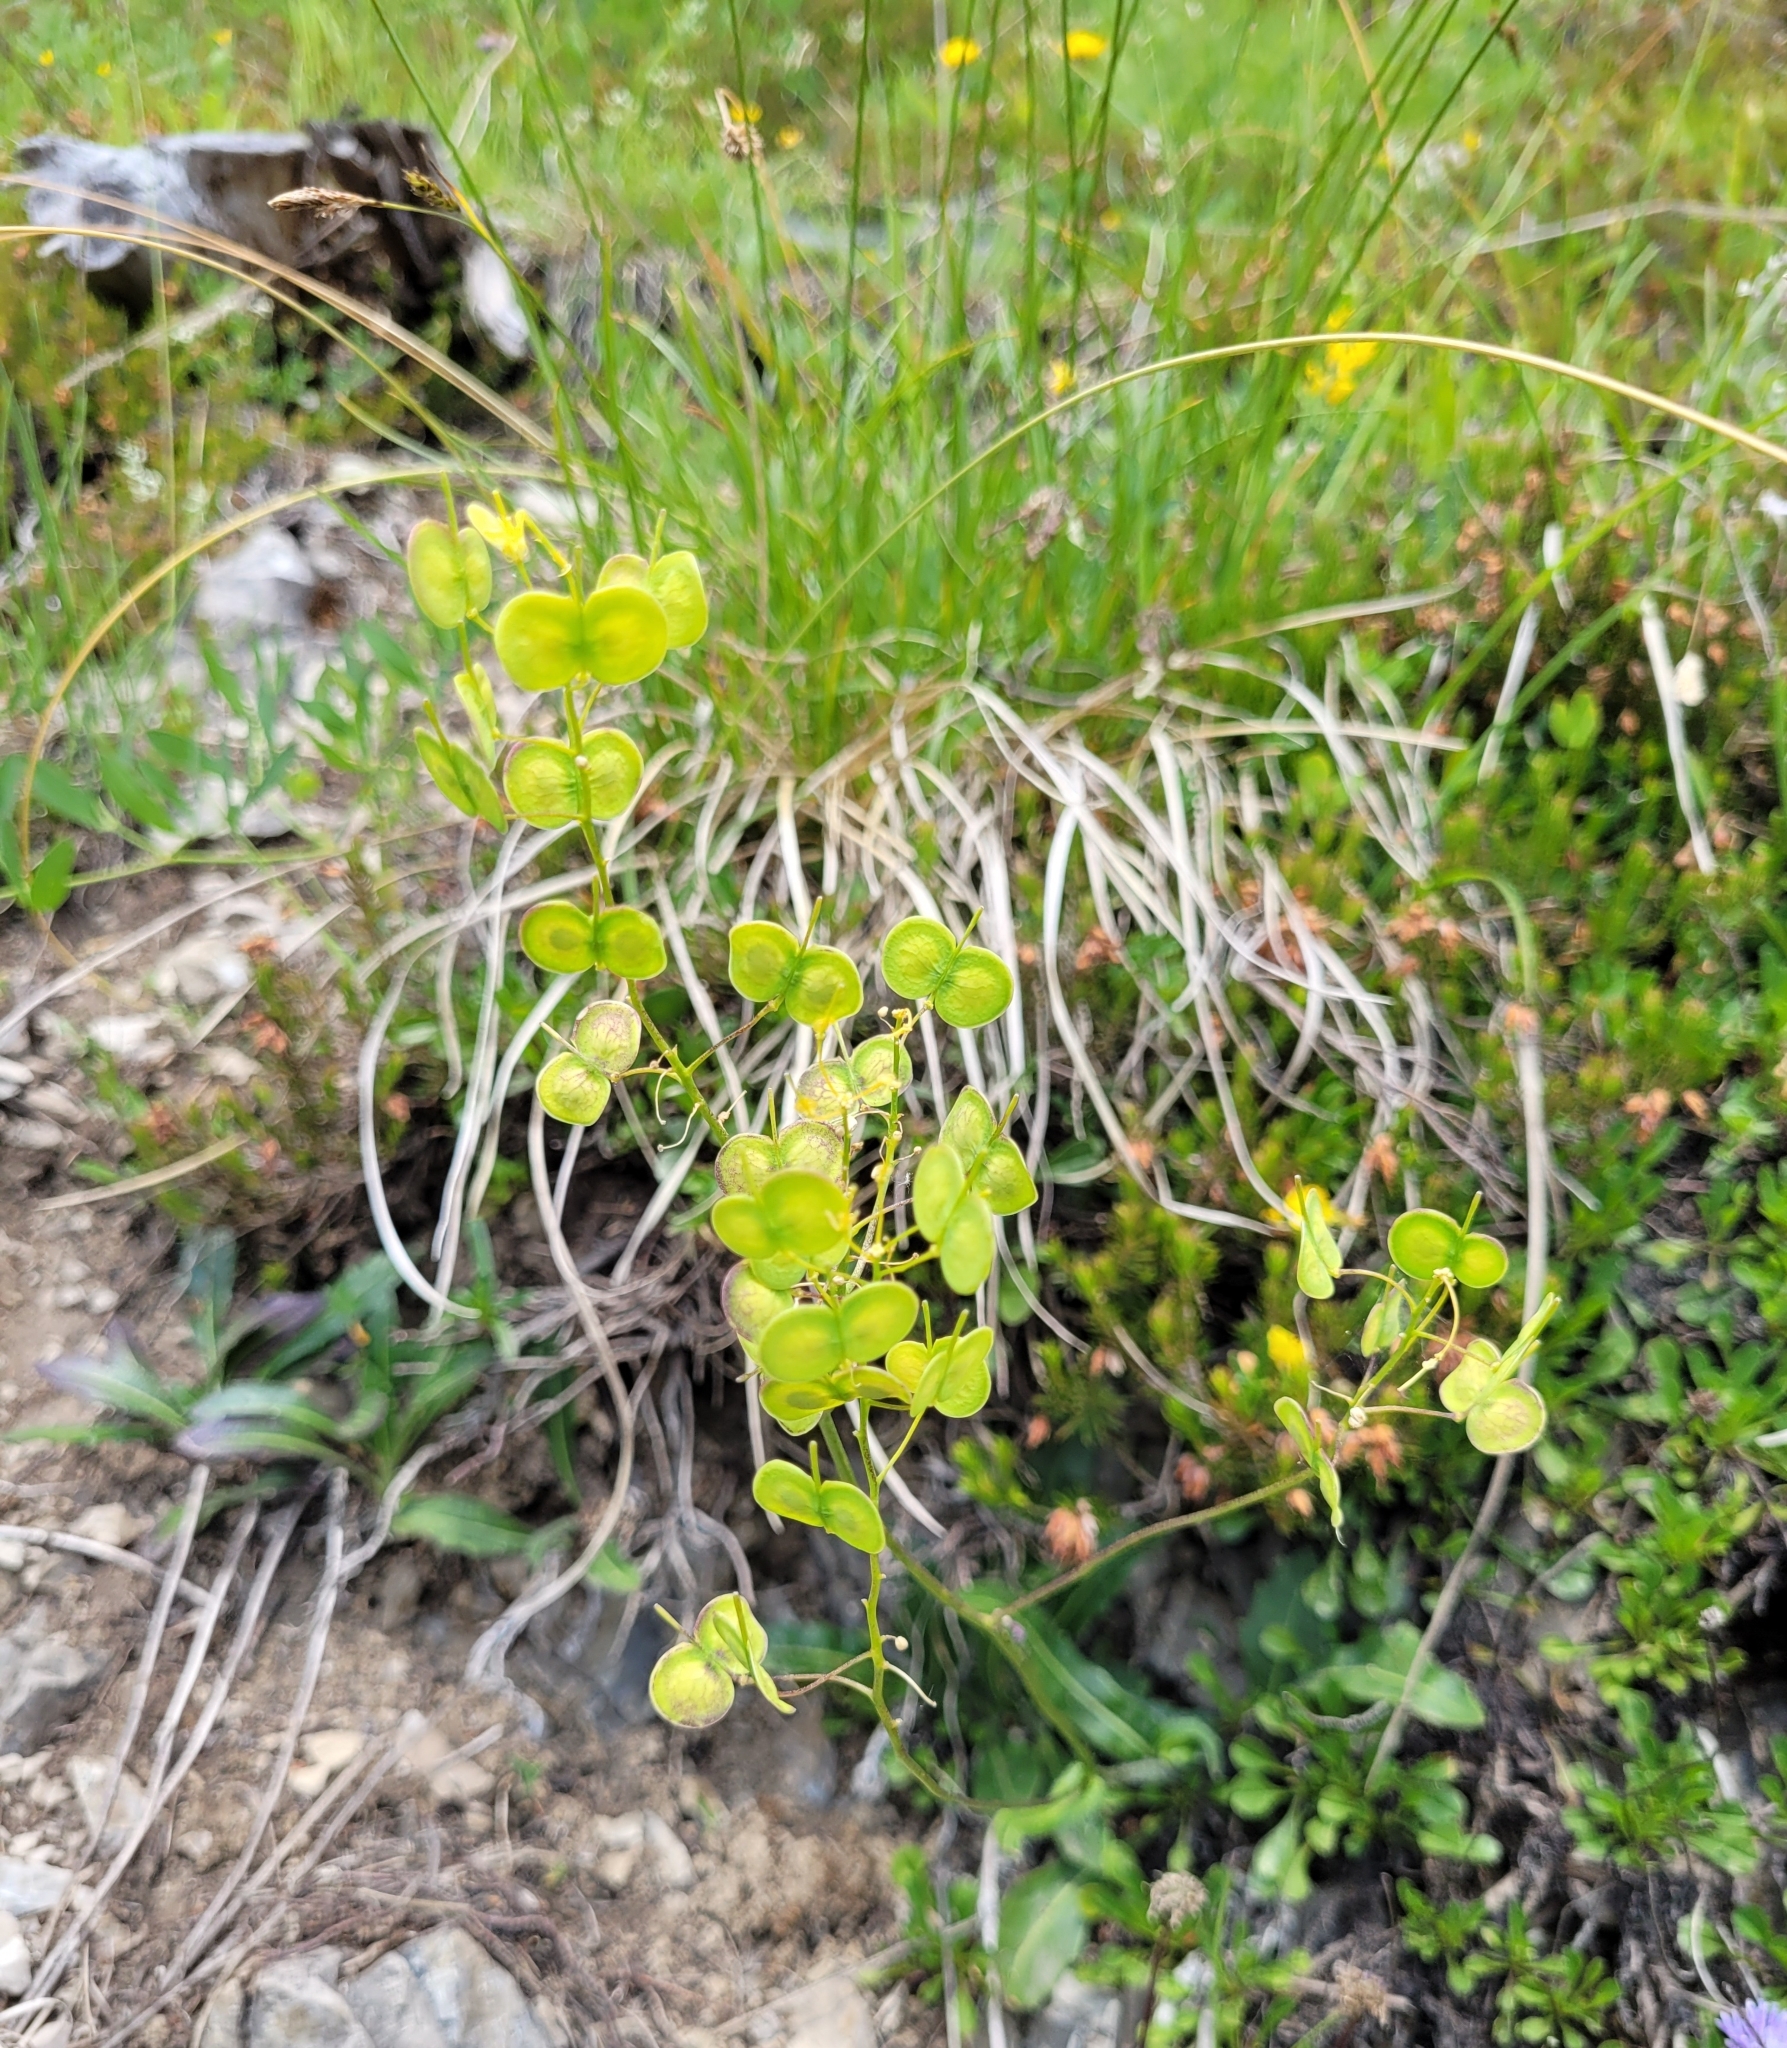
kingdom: Plantae
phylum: Tracheophyta
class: Magnoliopsida
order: Brassicales
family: Brassicaceae
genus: Biscutella
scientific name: Biscutella laevigata
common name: Buckler mustard
